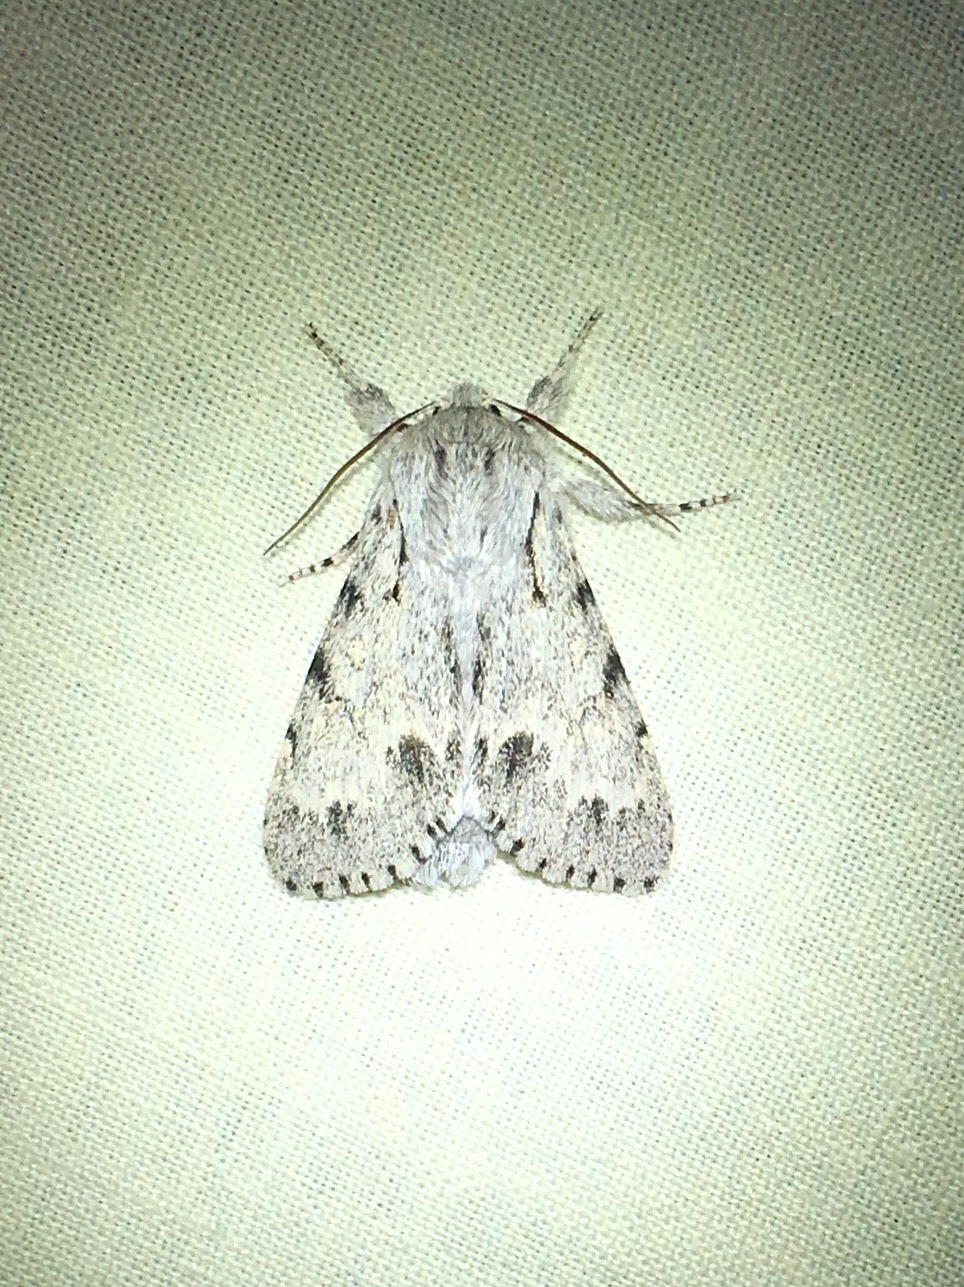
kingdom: Animalia
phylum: Arthropoda
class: Insecta
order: Lepidoptera
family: Noctuidae
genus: Acronicta
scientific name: Acronicta lepusculina
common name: Cottonwood dagger
